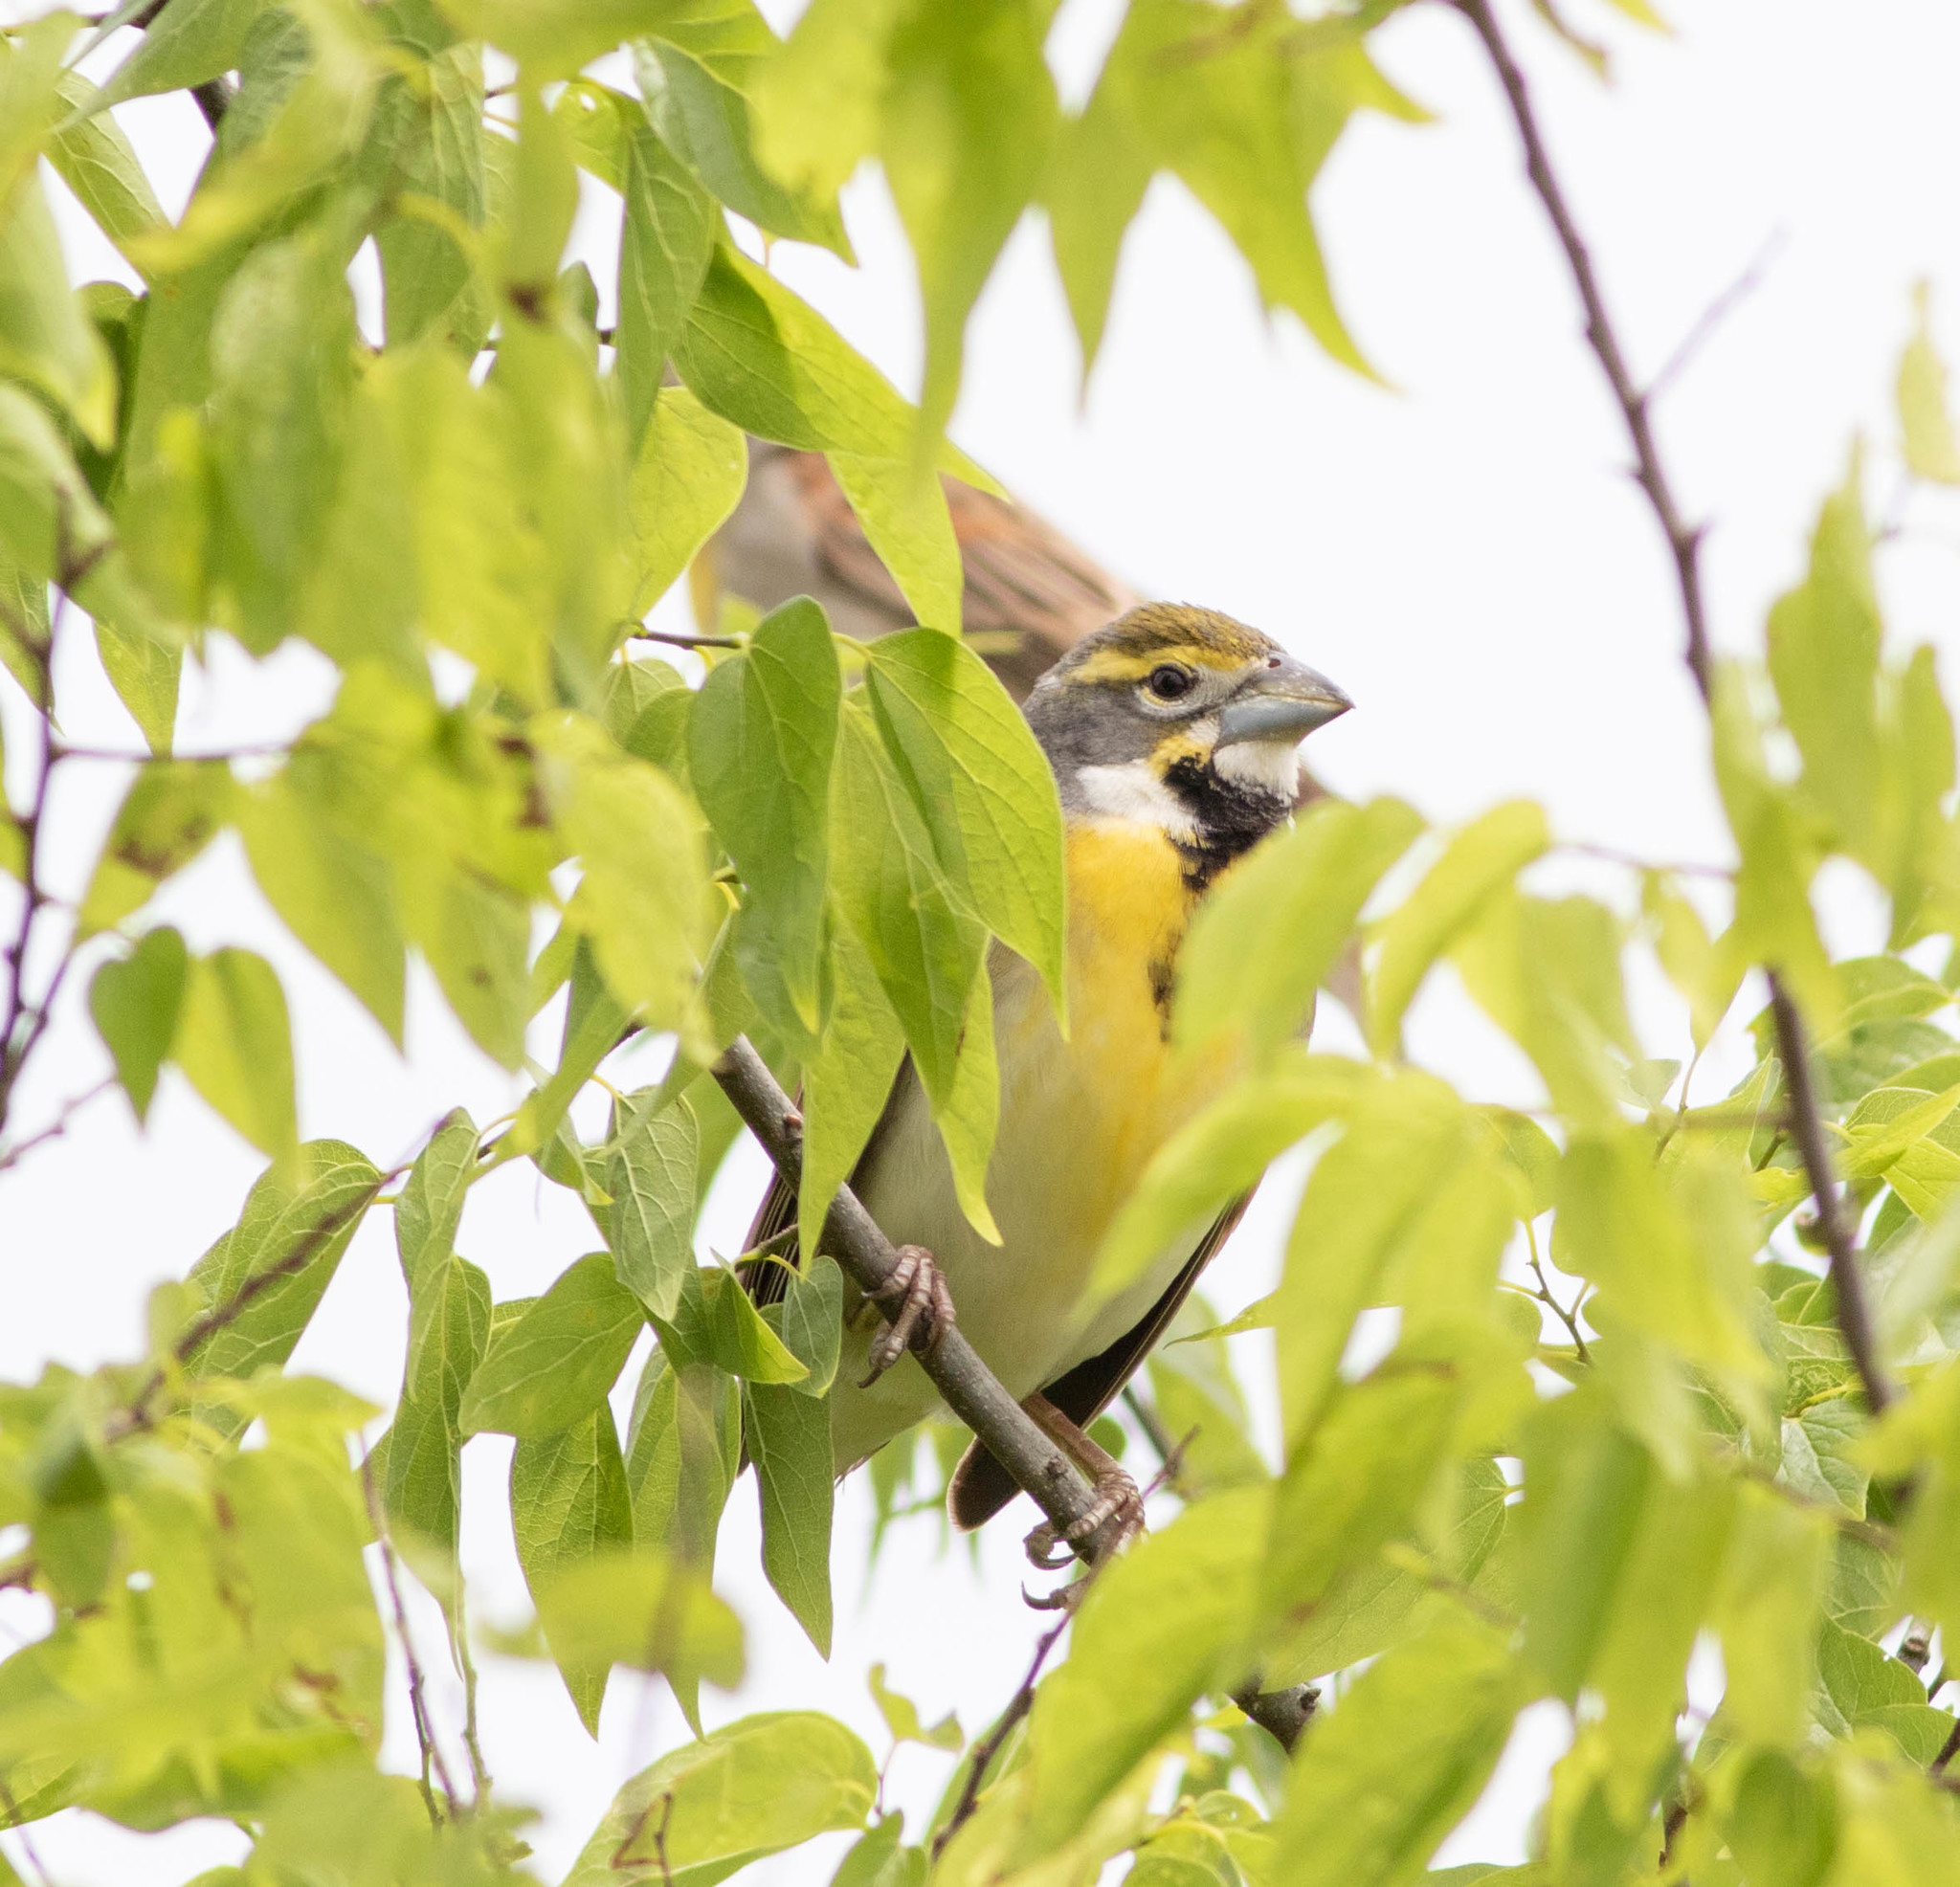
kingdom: Animalia
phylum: Chordata
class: Aves
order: Passeriformes
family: Cardinalidae
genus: Spiza
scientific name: Spiza americana
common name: Dickcissel
